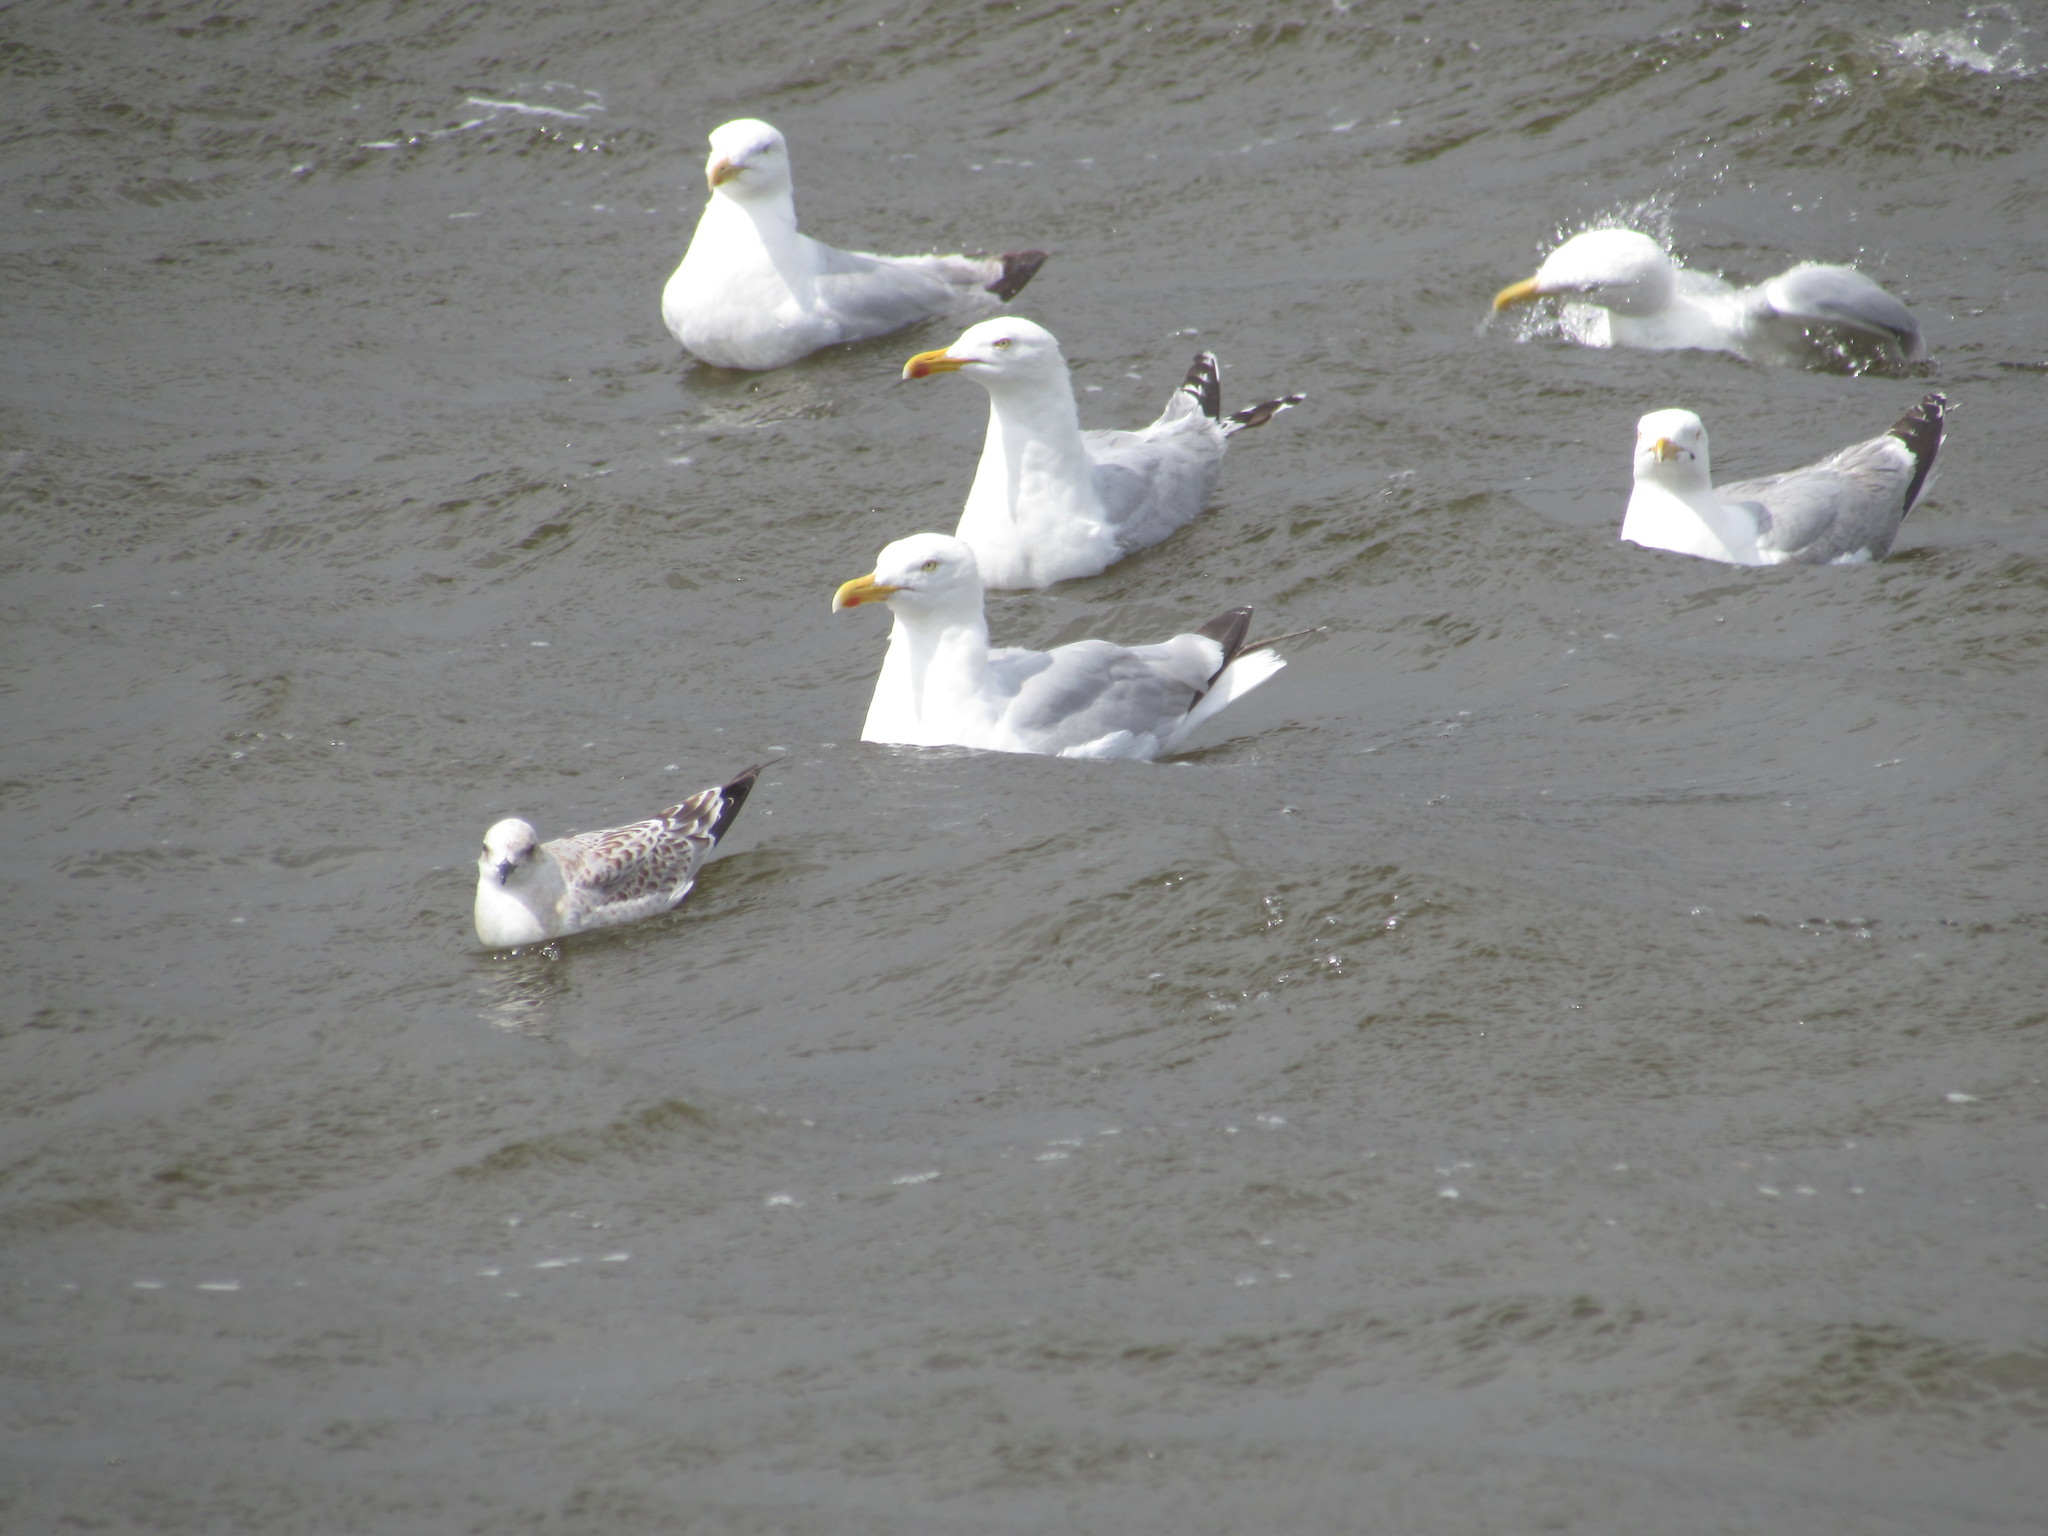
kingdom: Animalia
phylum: Chordata
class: Aves
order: Charadriiformes
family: Laridae
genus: Larus
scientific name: Larus argentatus
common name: Herring gull
